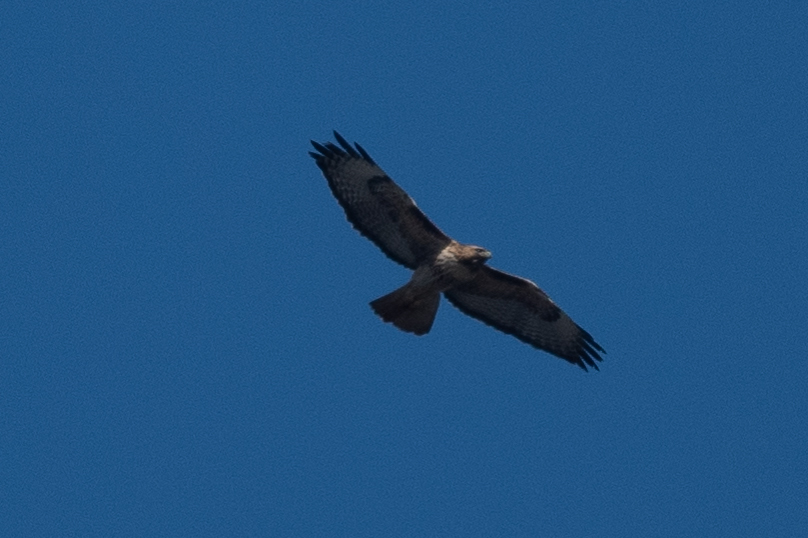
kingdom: Animalia
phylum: Chordata
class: Aves
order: Accipitriformes
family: Accipitridae
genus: Buteo
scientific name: Buteo jamaicensis
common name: Red-tailed hawk
